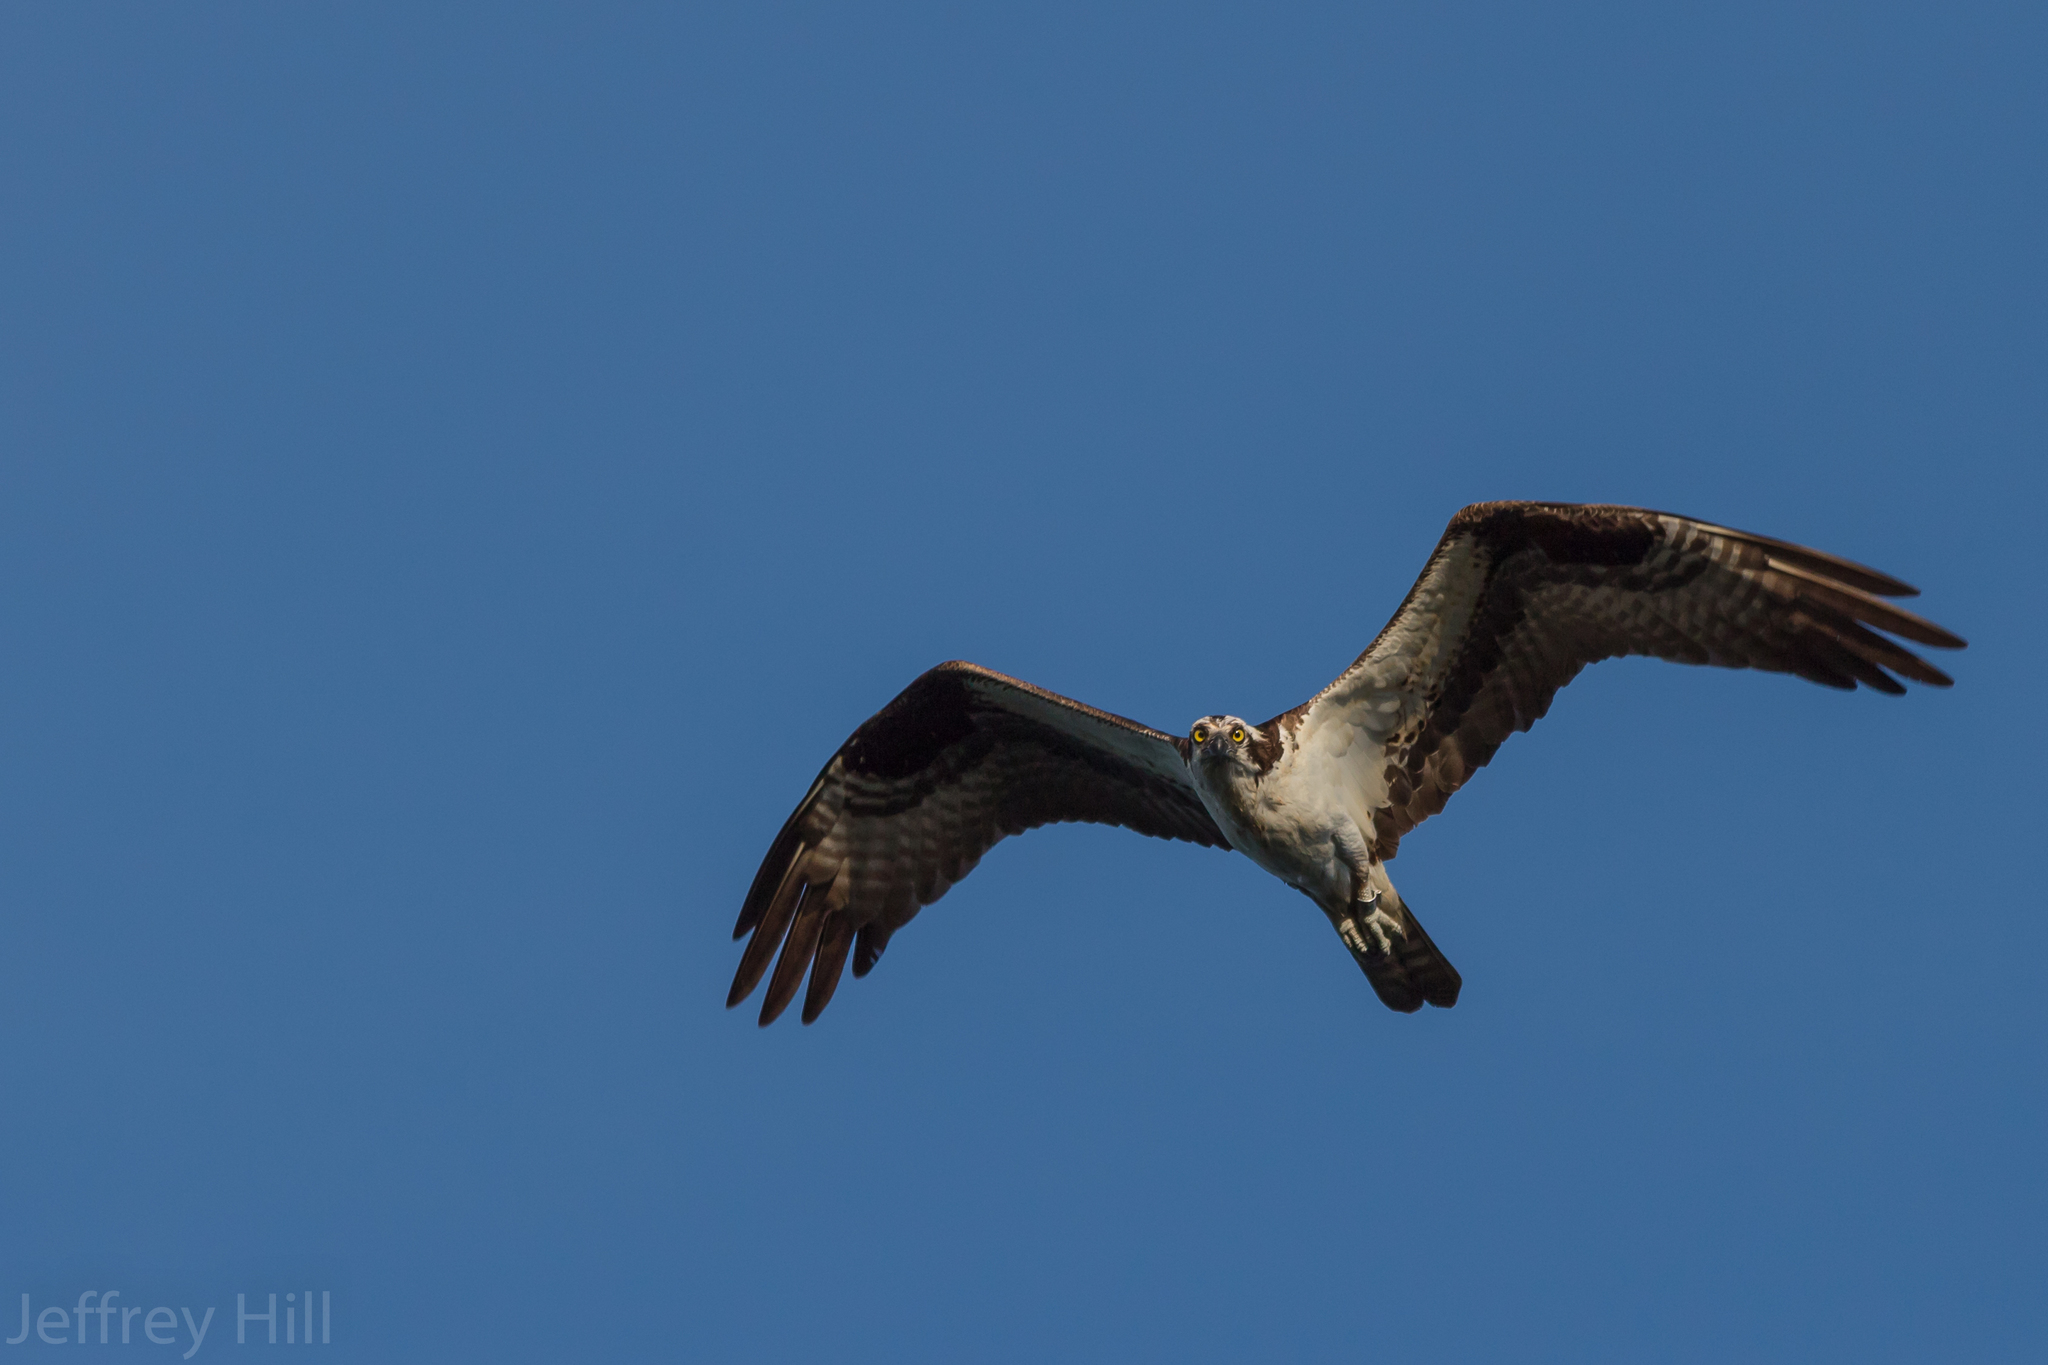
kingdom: Animalia
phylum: Chordata
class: Aves
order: Accipitriformes
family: Pandionidae
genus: Pandion
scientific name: Pandion haliaetus
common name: Osprey
